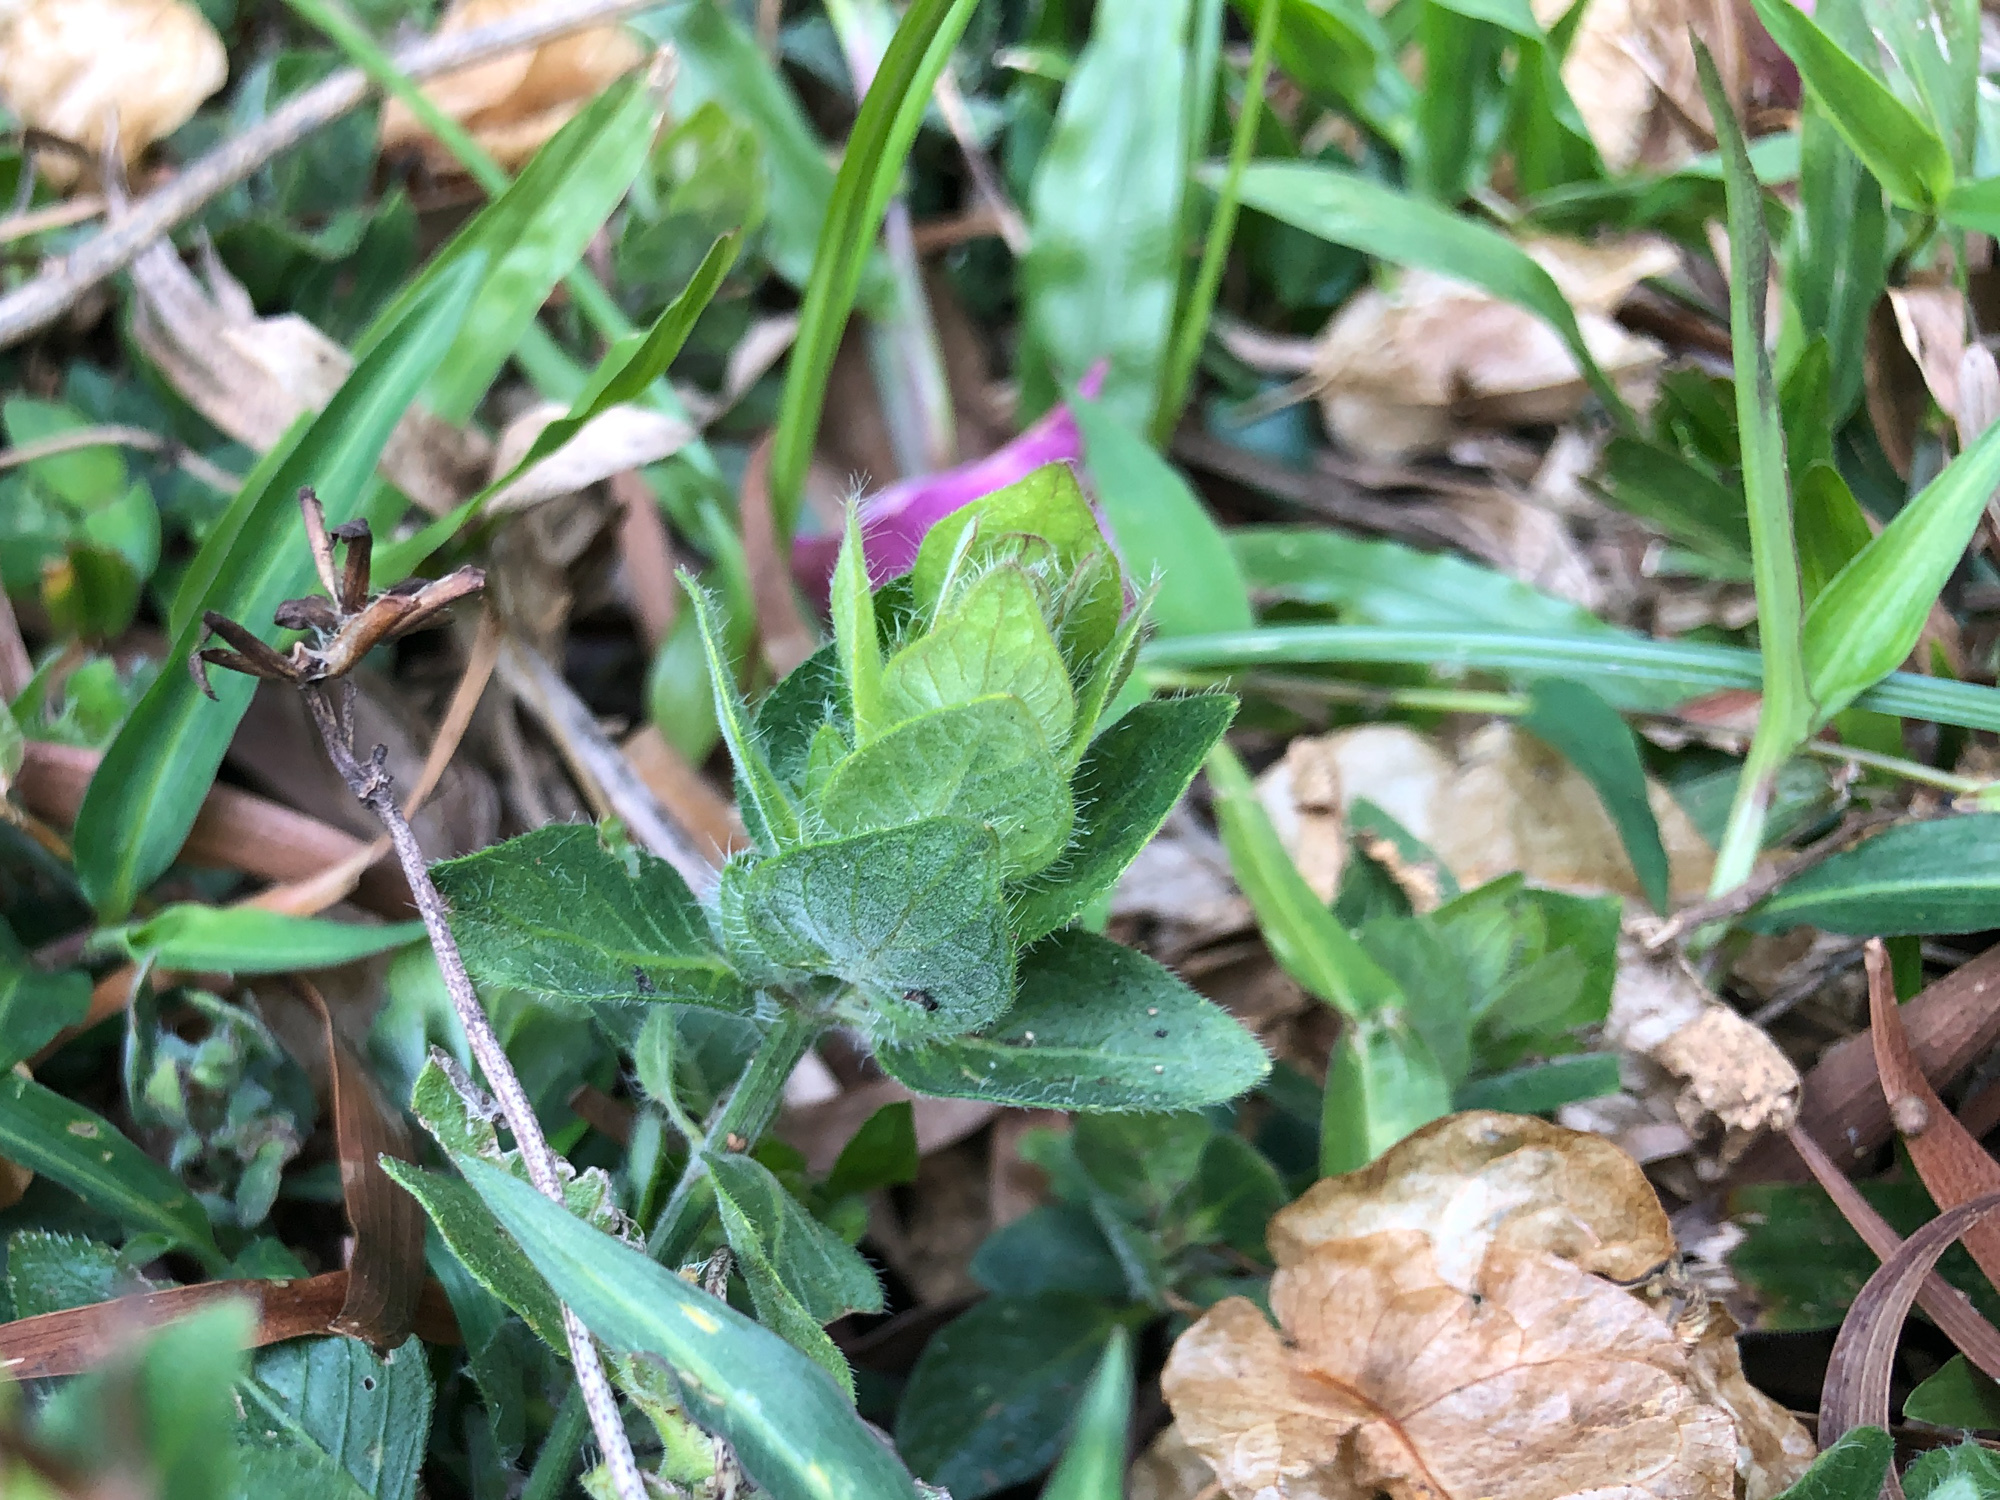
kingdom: Plantae
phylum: Tracheophyta
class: Magnoliopsida
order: Lamiales
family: Acanthaceae
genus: Ruellia
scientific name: Ruellia blechum
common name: Browne's blechum
